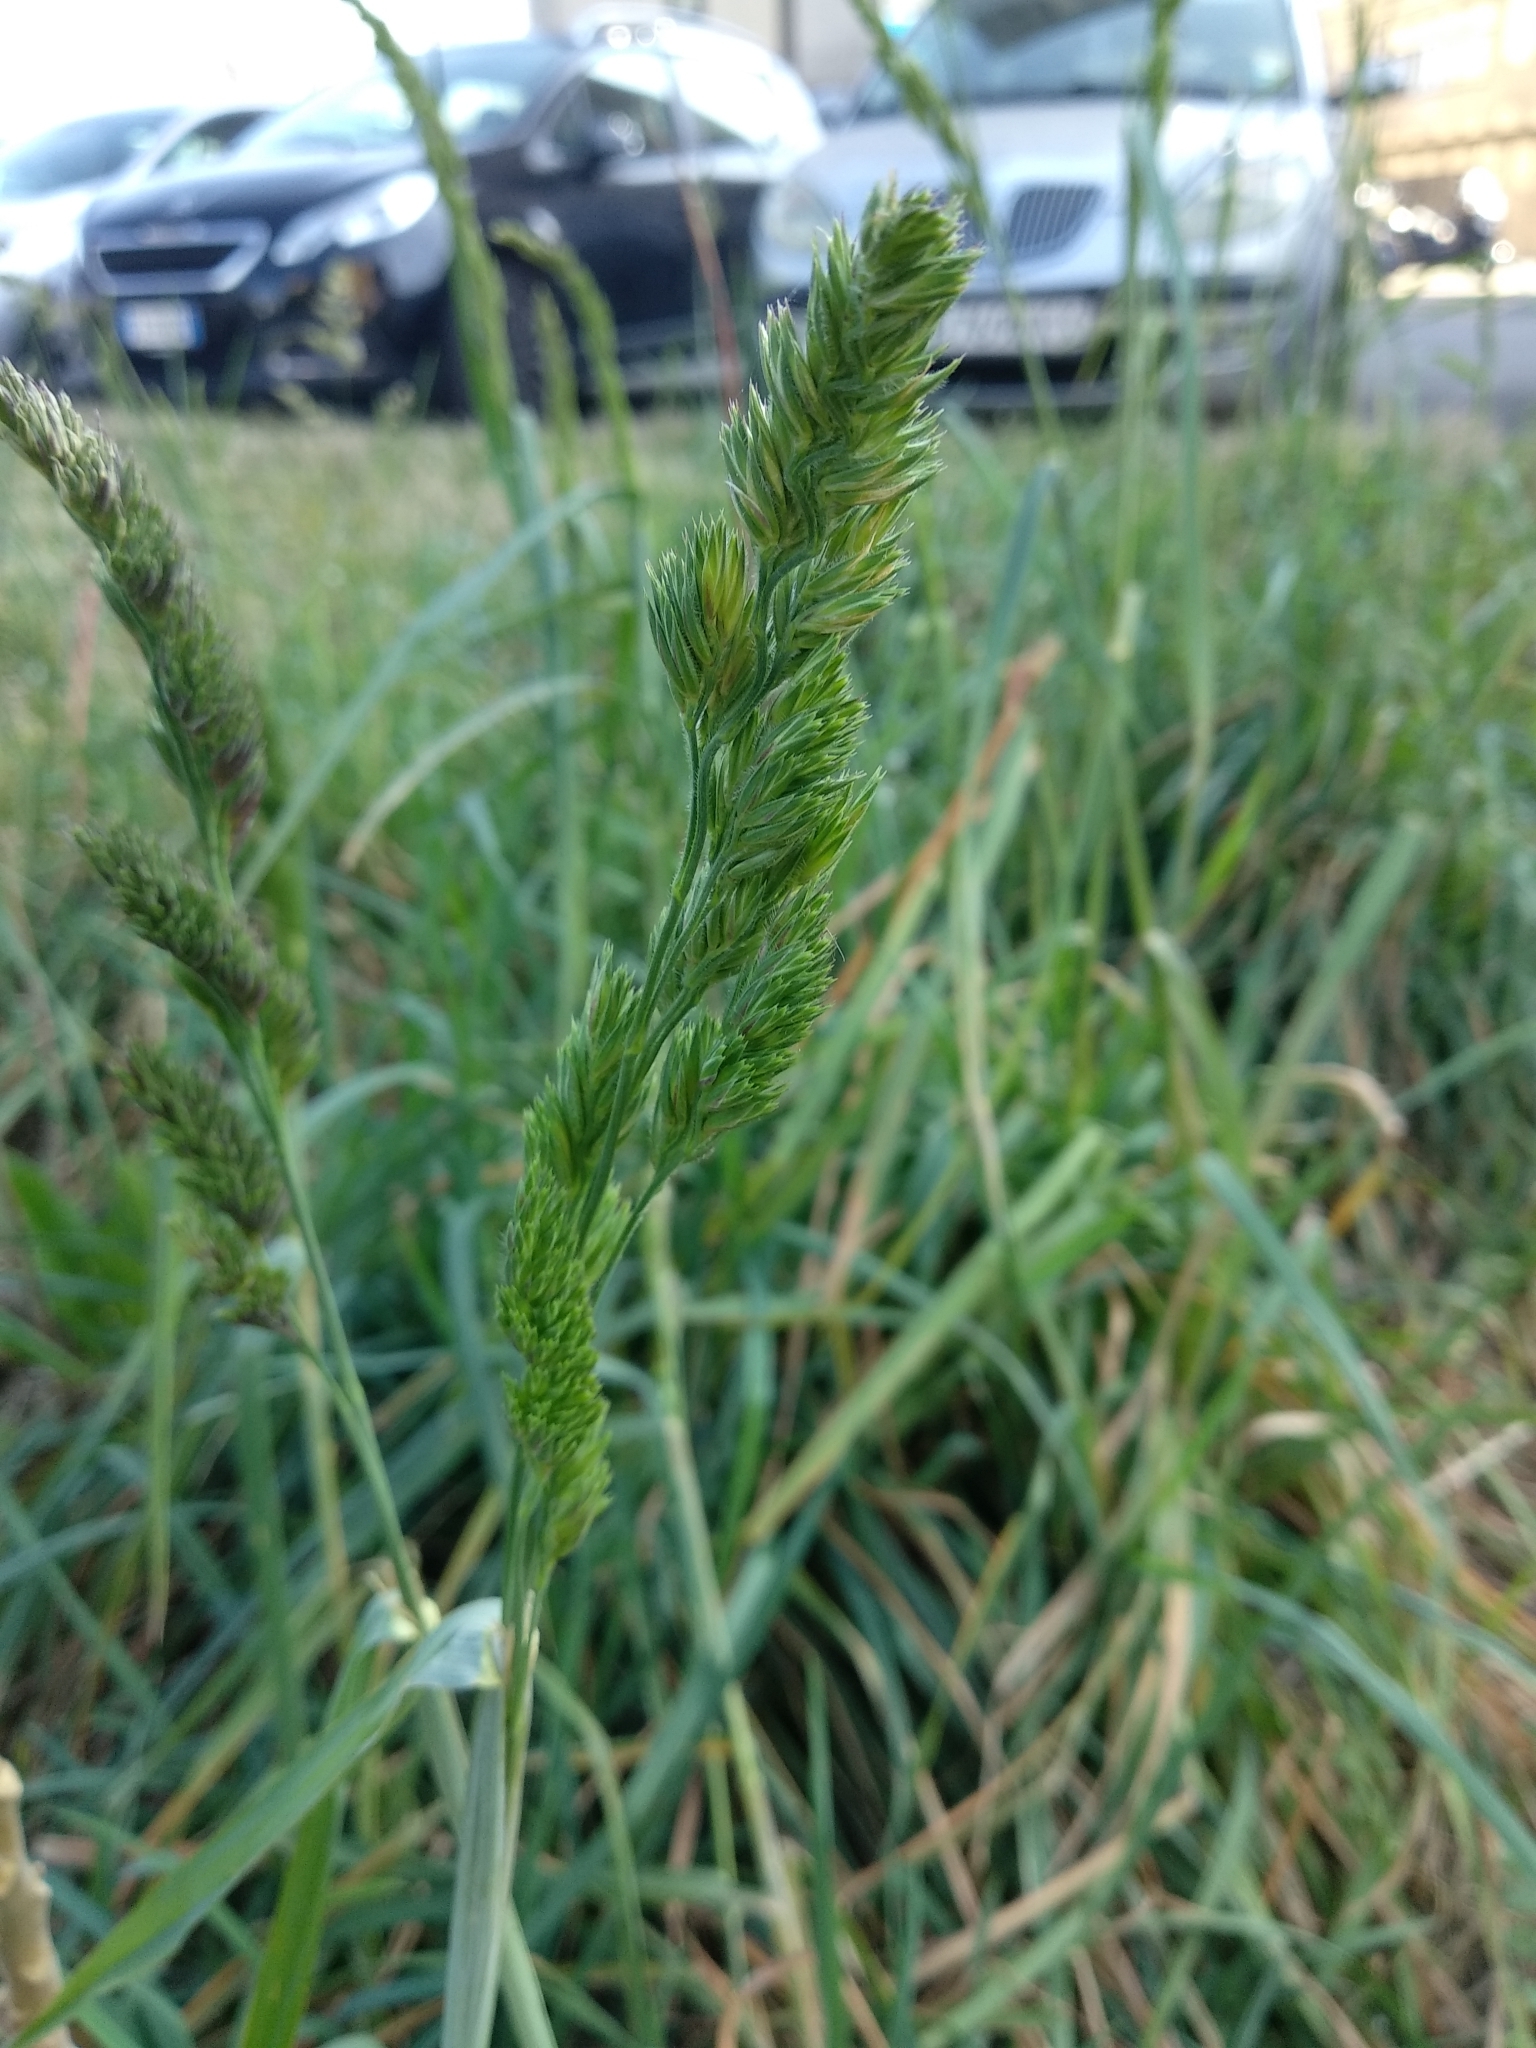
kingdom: Plantae
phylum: Tracheophyta
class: Liliopsida
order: Poales
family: Poaceae
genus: Dactylis
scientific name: Dactylis glomerata
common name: Orchardgrass
